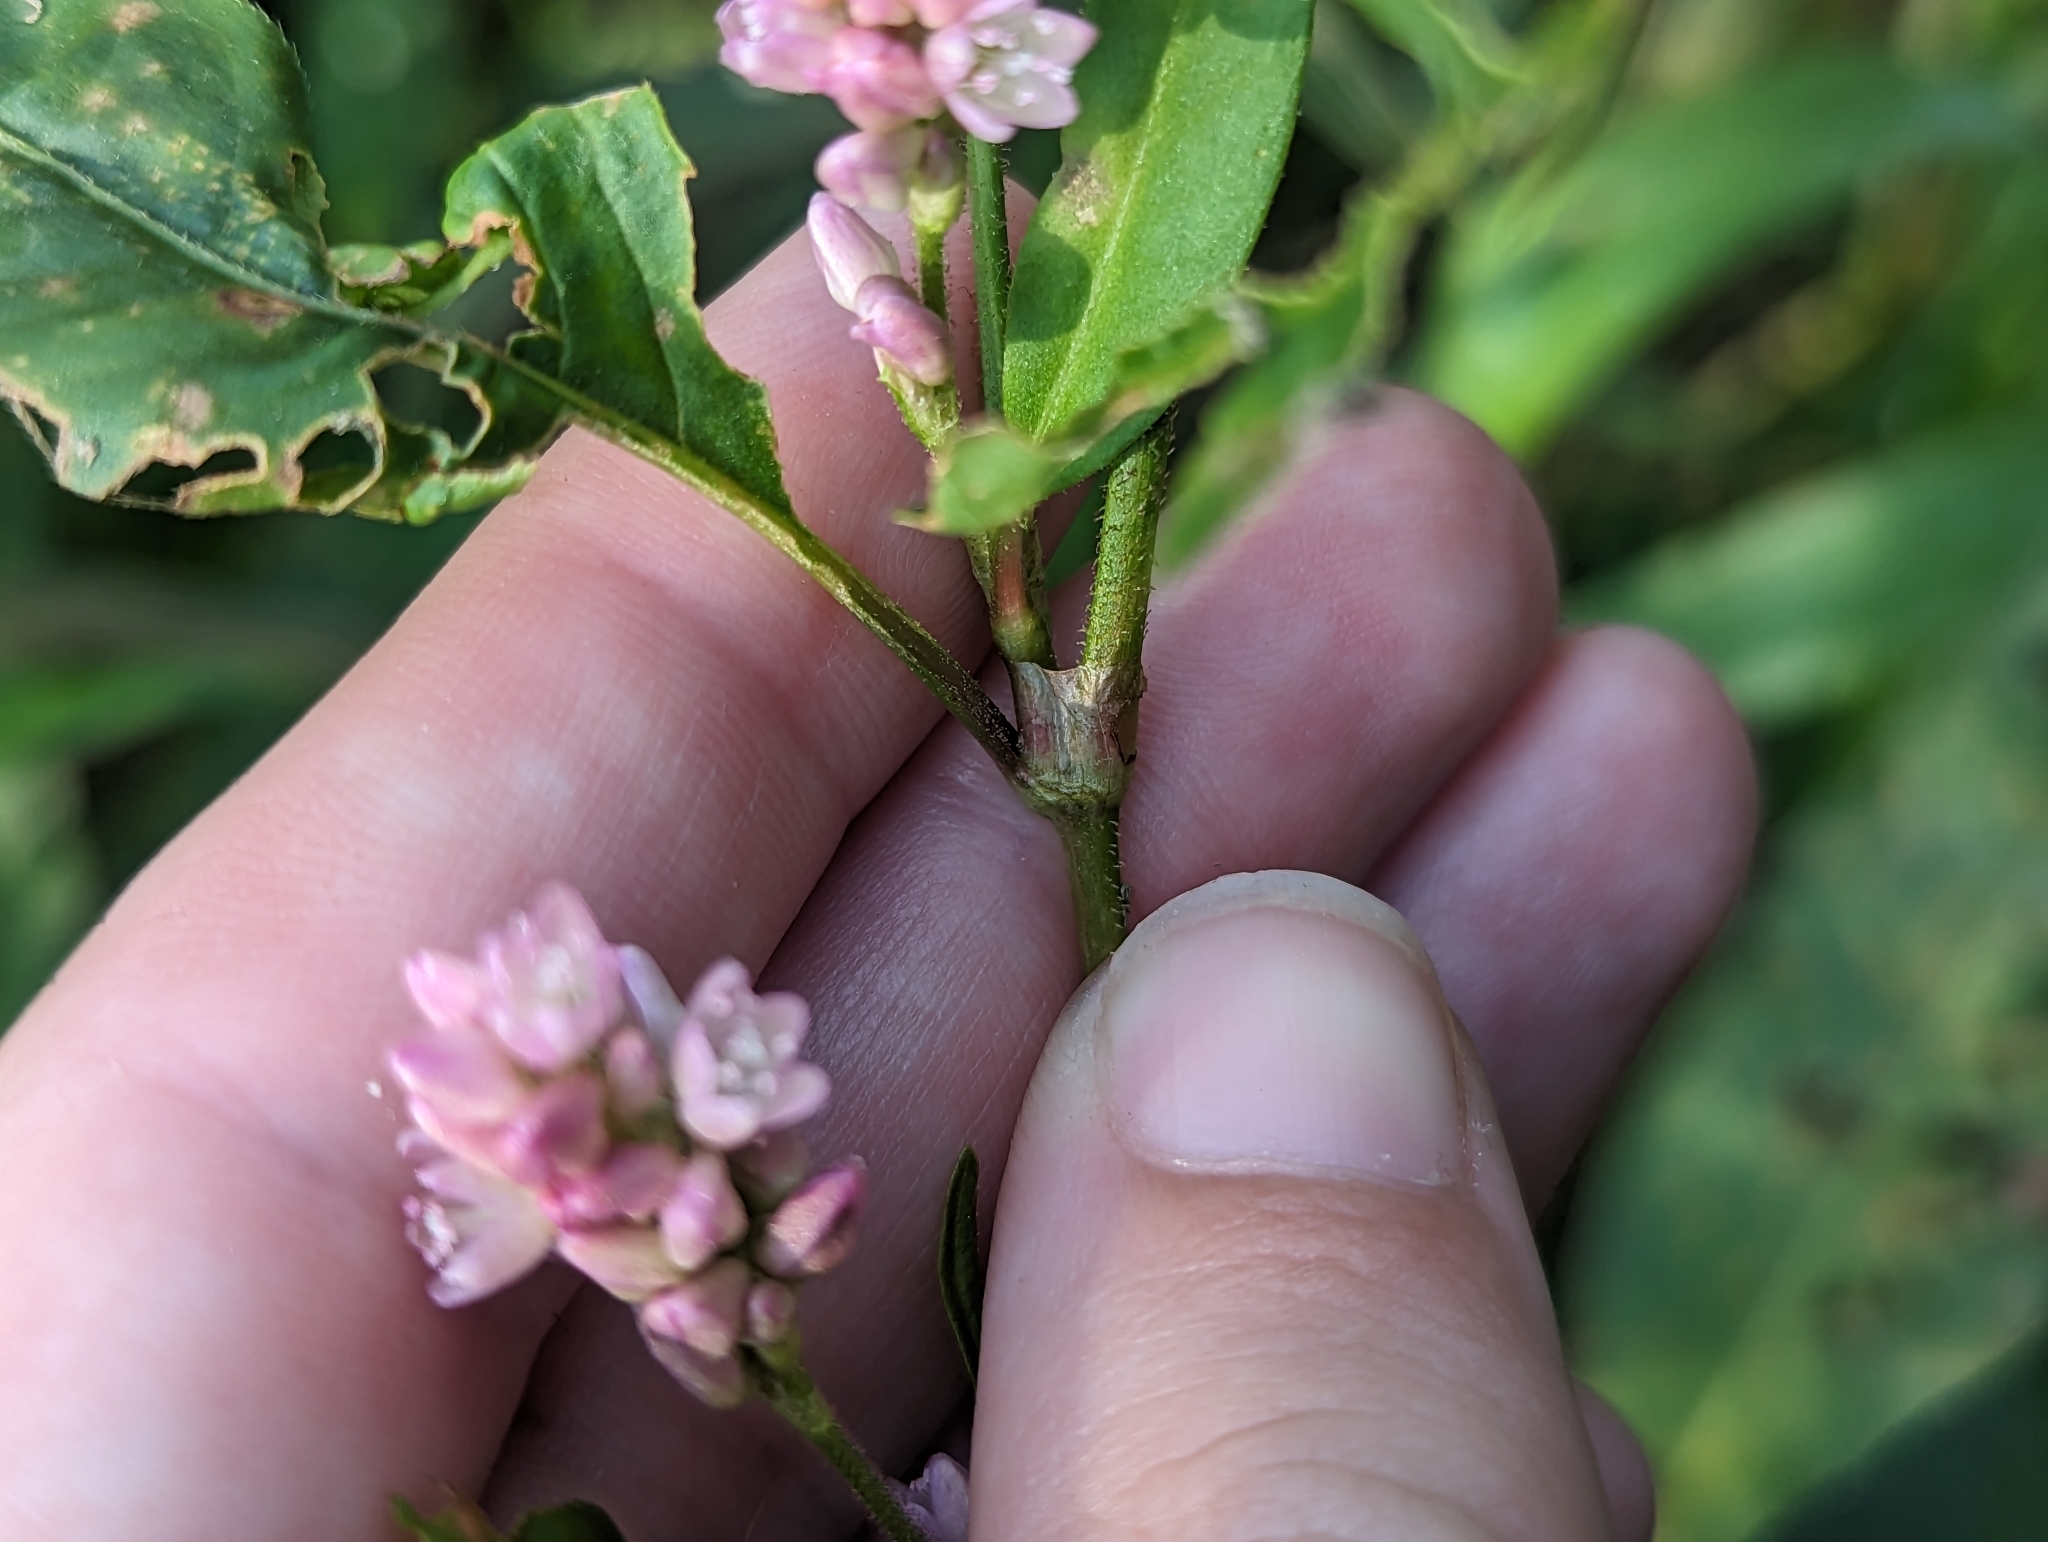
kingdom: Plantae
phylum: Tracheophyta
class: Magnoliopsida
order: Caryophyllales
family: Polygonaceae
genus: Persicaria
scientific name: Persicaria pensylvanica
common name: Pinkweed
